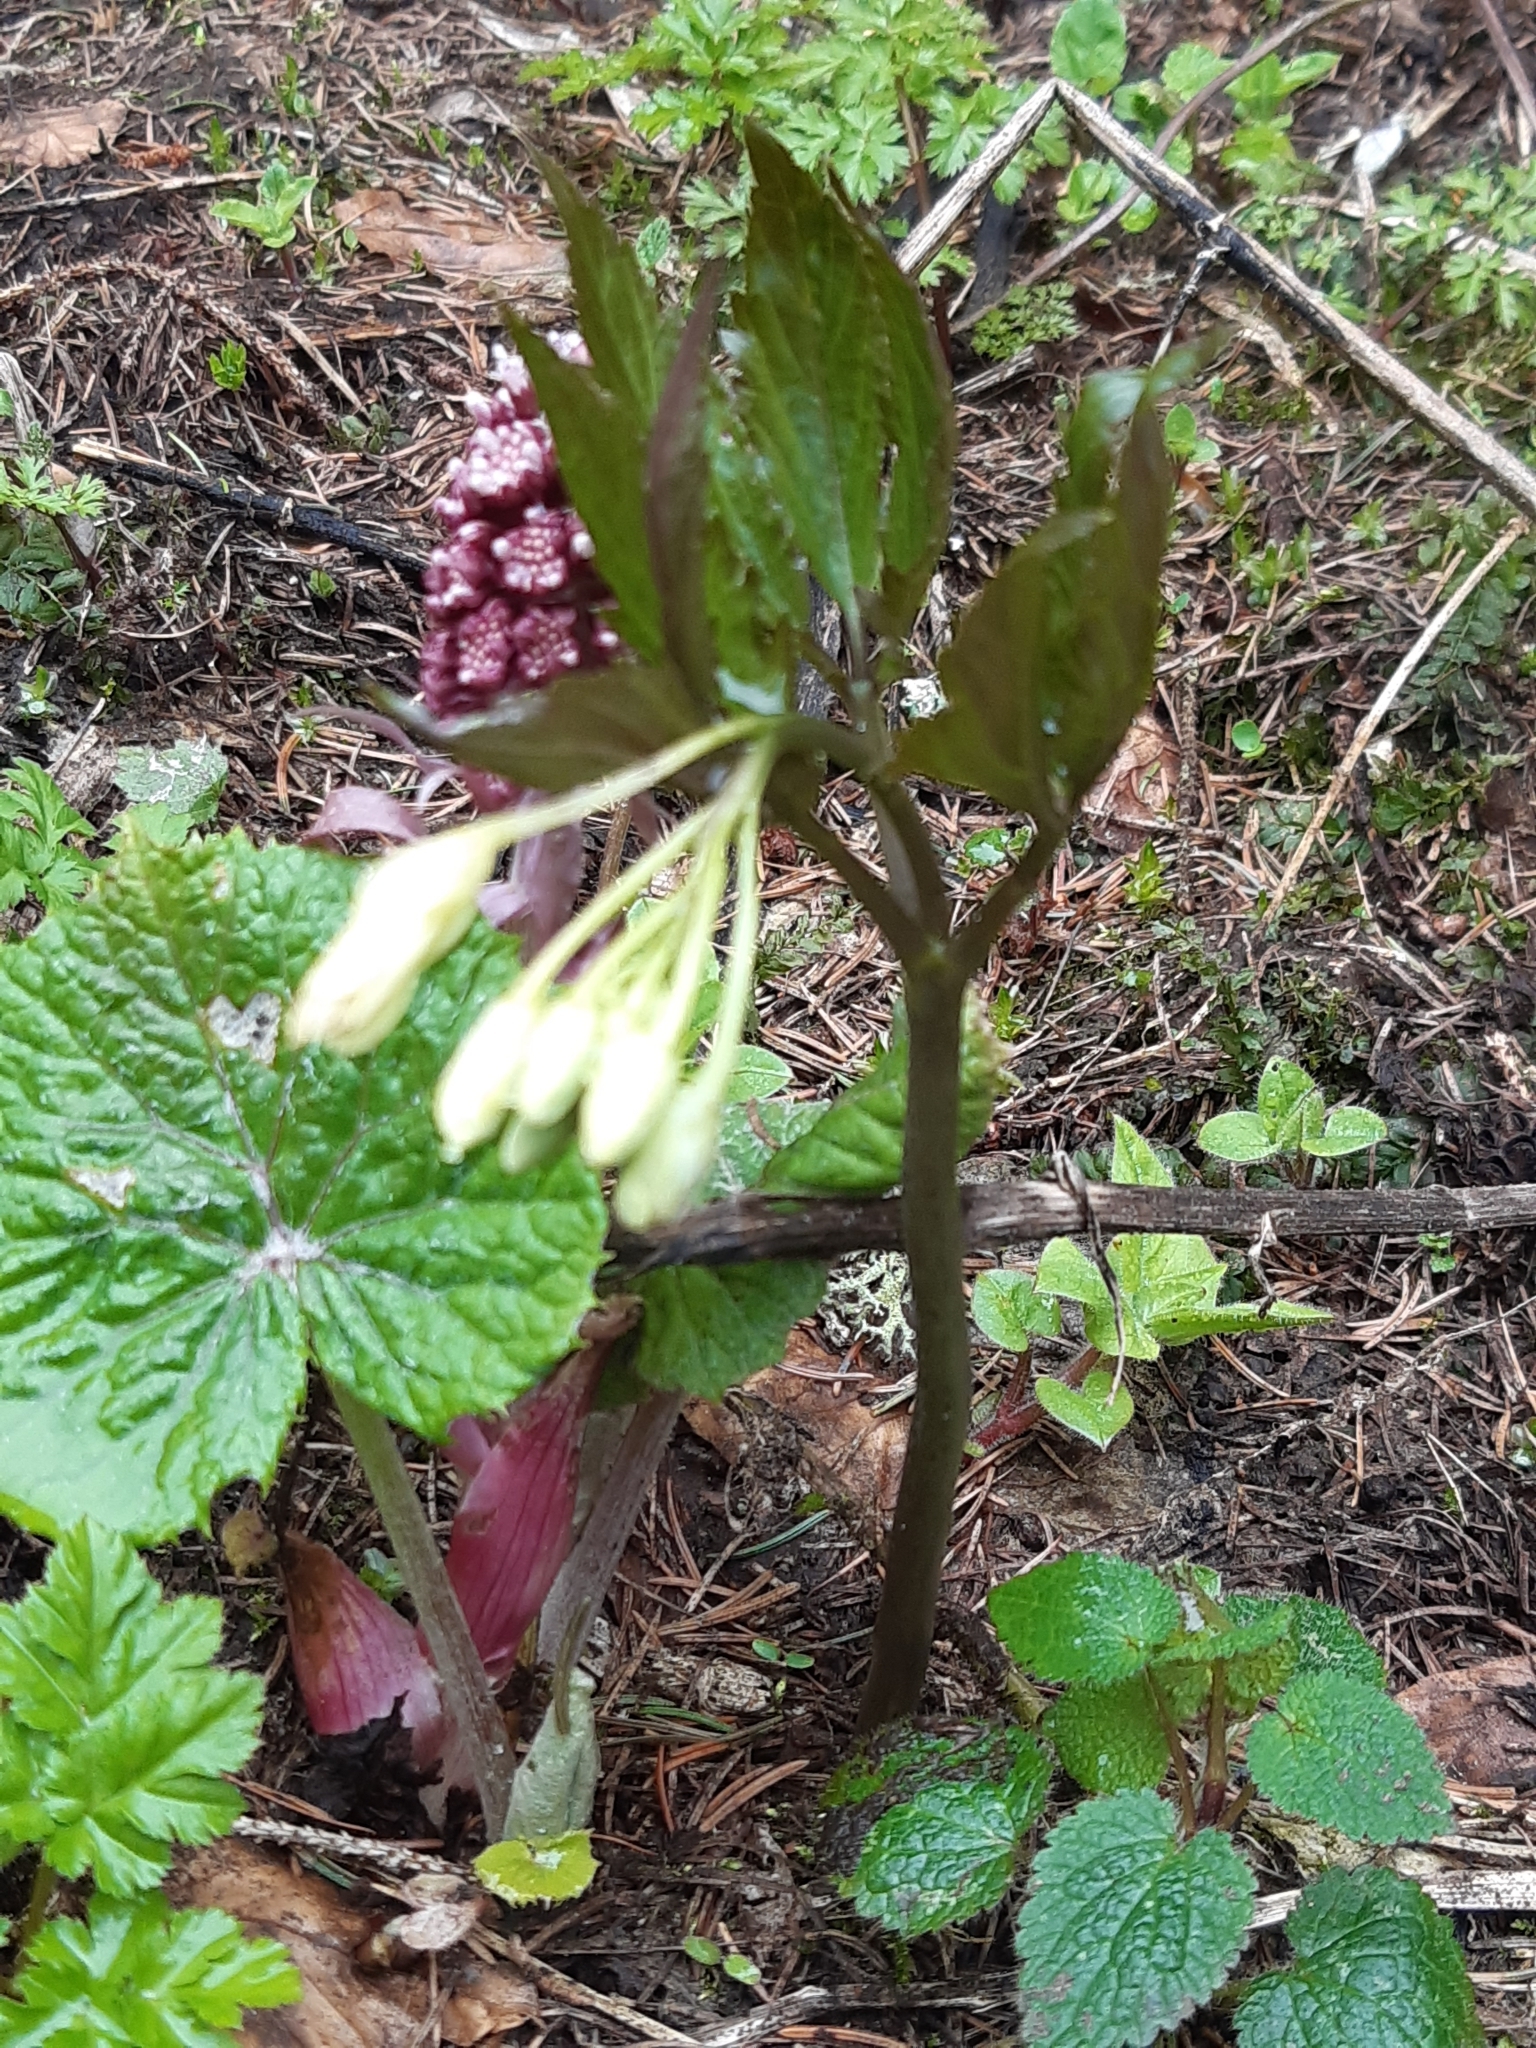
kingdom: Plantae
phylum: Tracheophyta
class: Magnoliopsida
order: Brassicales
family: Brassicaceae
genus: Cardamine
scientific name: Cardamine enneaphyllos
